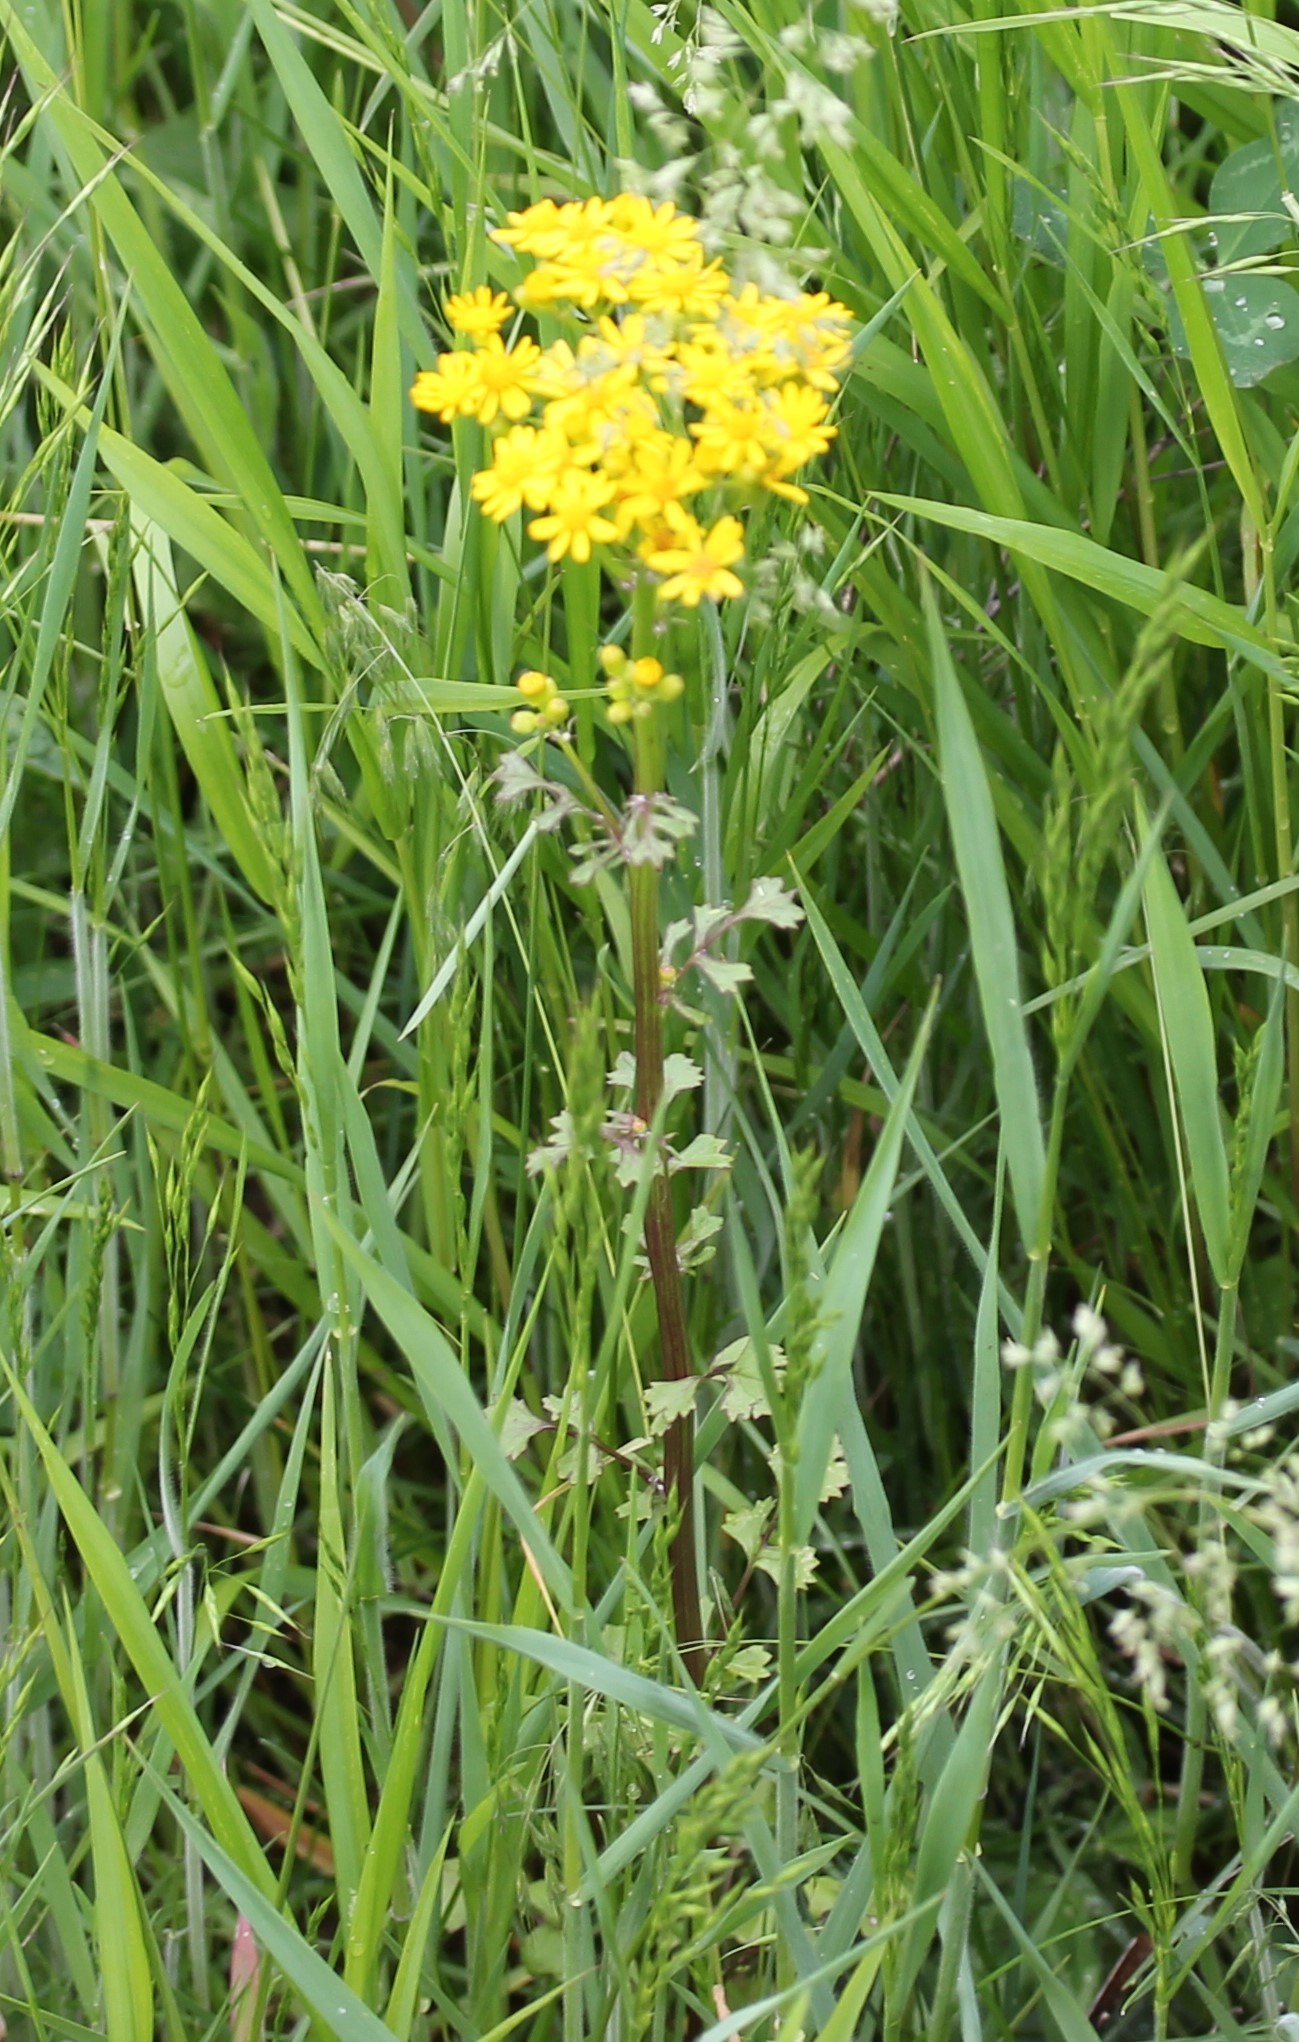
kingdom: Plantae
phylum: Tracheophyta
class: Magnoliopsida
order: Asterales
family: Asteraceae
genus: Packera
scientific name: Packera glabella
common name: Butterweed
